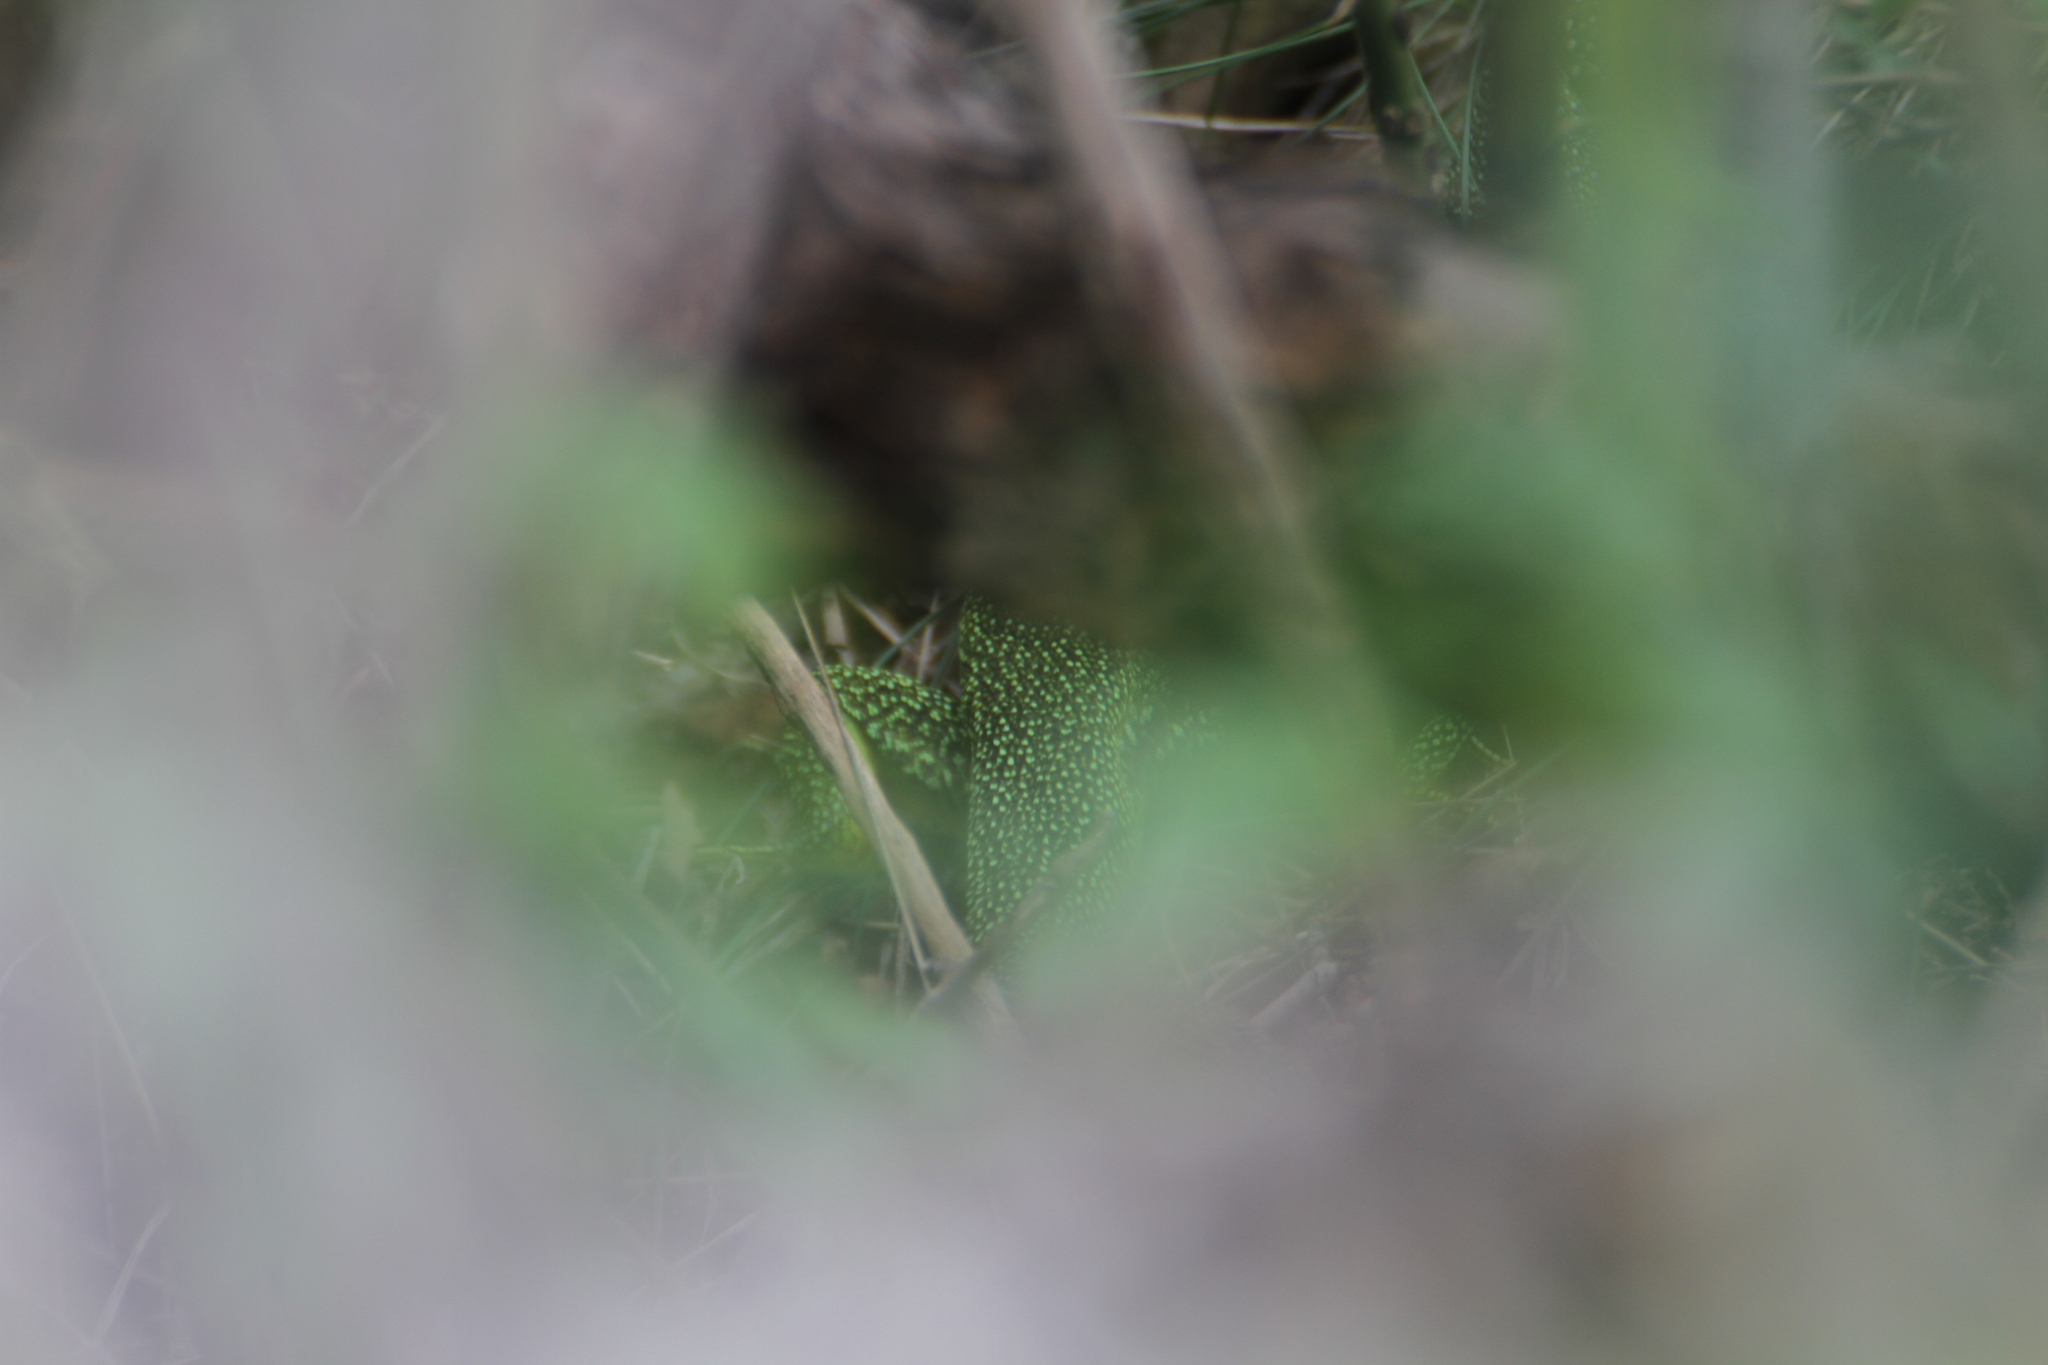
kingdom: Animalia
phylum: Chordata
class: Squamata
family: Lacertidae
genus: Lacerta
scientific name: Lacerta bilineata
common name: Western green lizard
